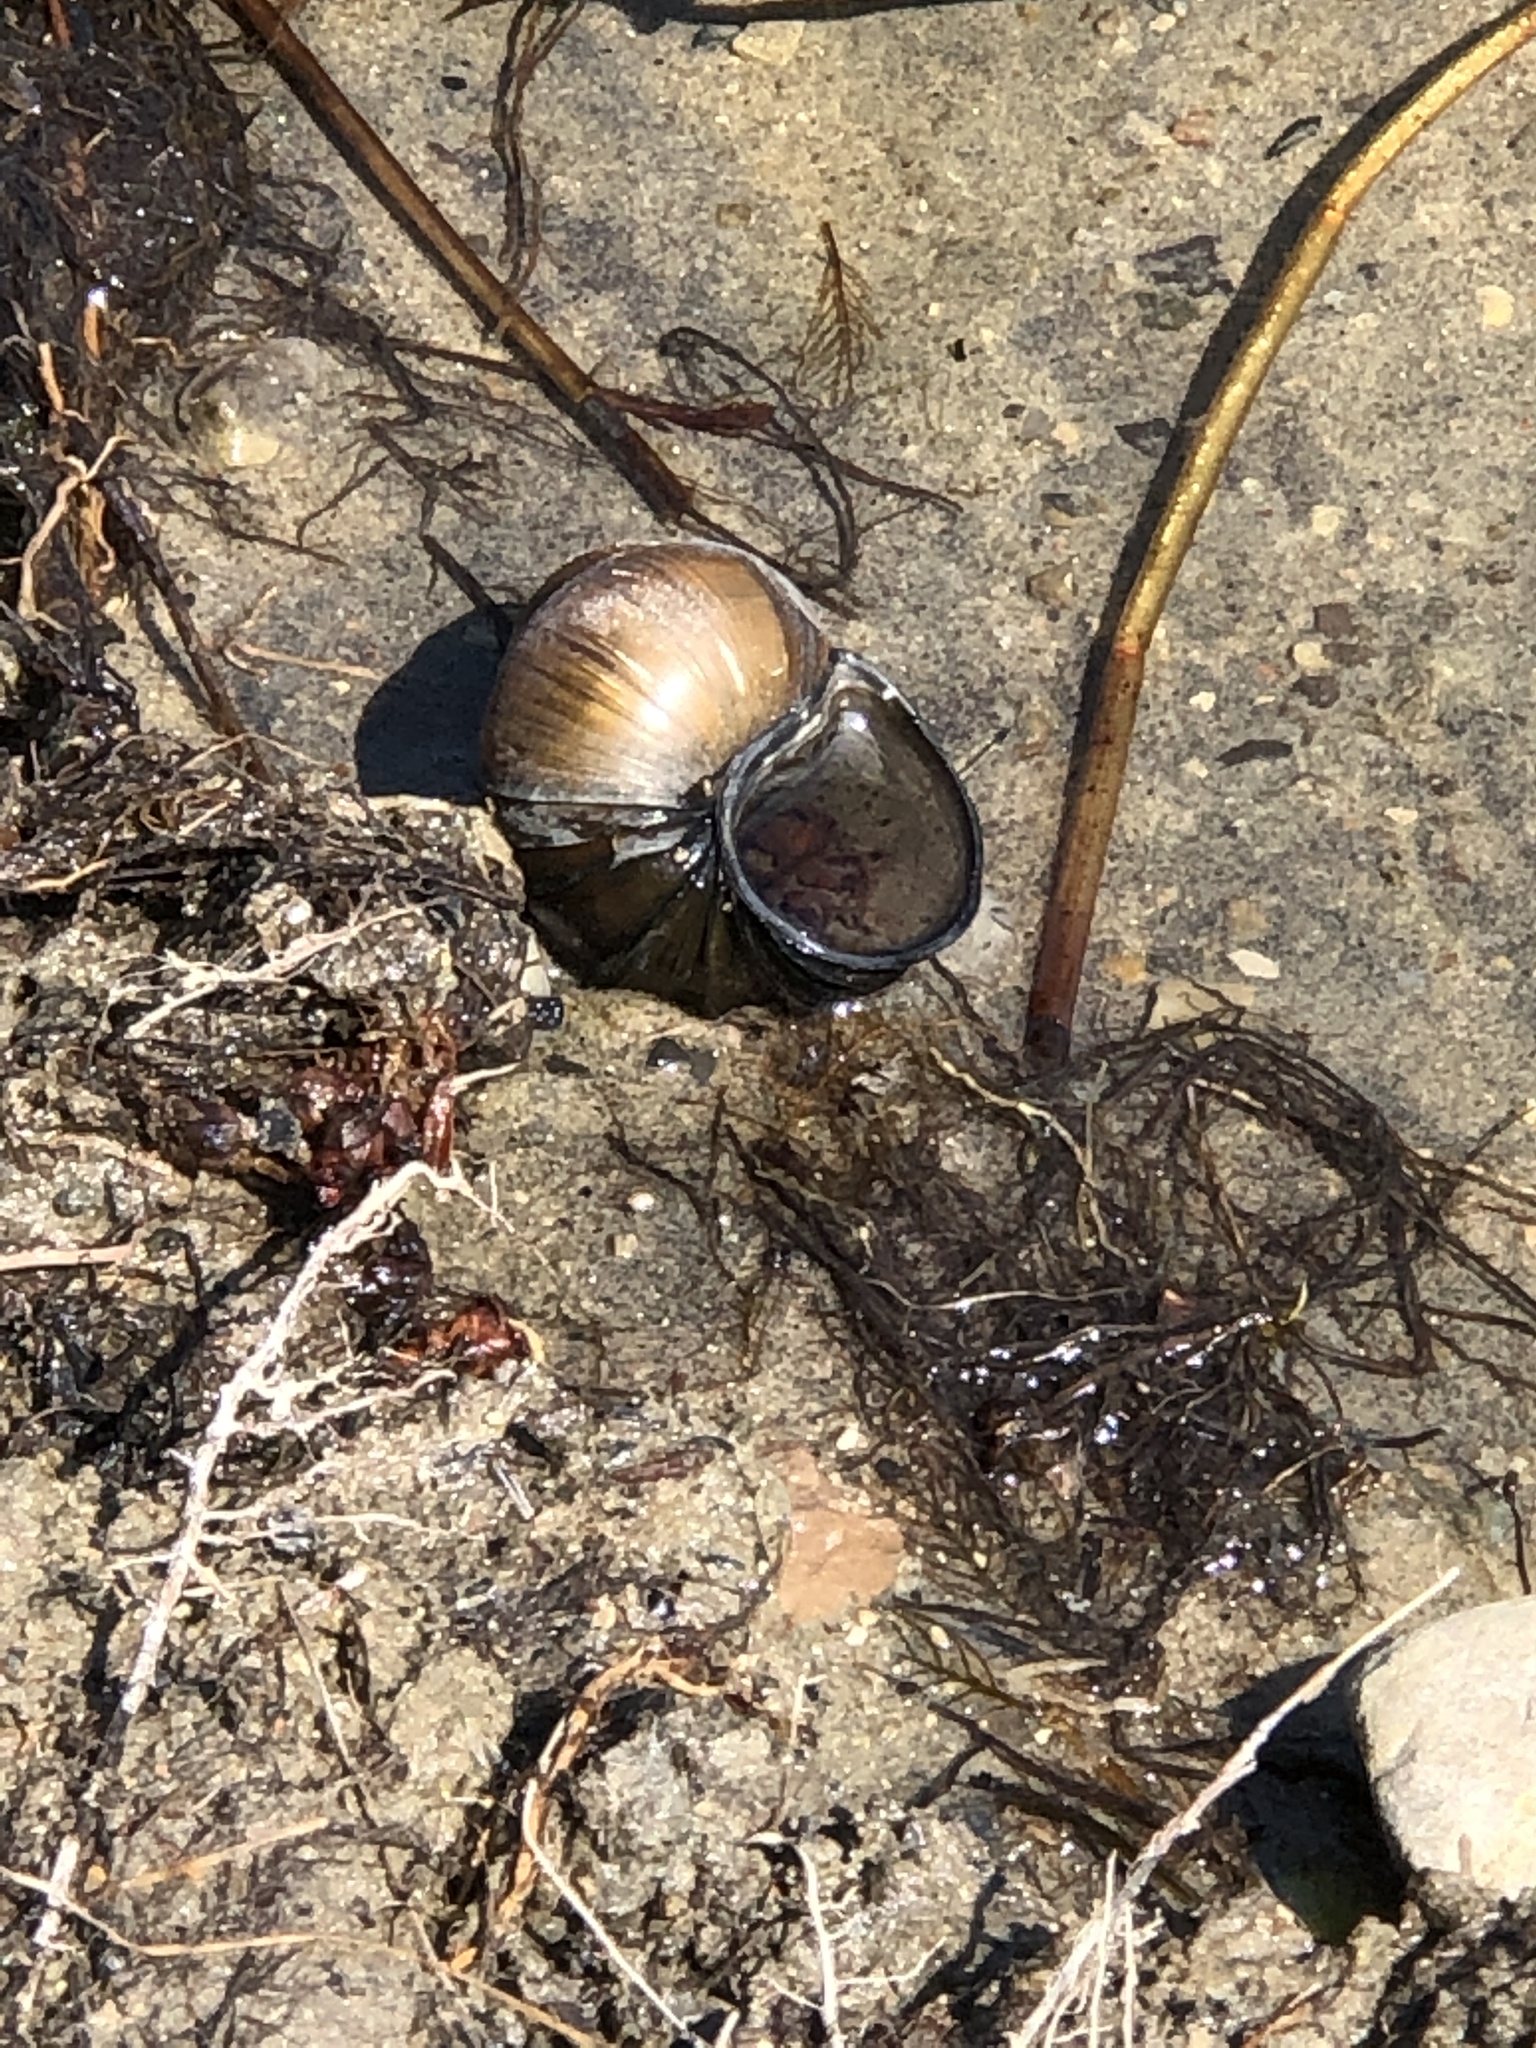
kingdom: Animalia
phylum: Mollusca
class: Gastropoda
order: Architaenioglossa
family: Viviparidae
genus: Cipangopaludina
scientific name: Cipangopaludina chinensis
